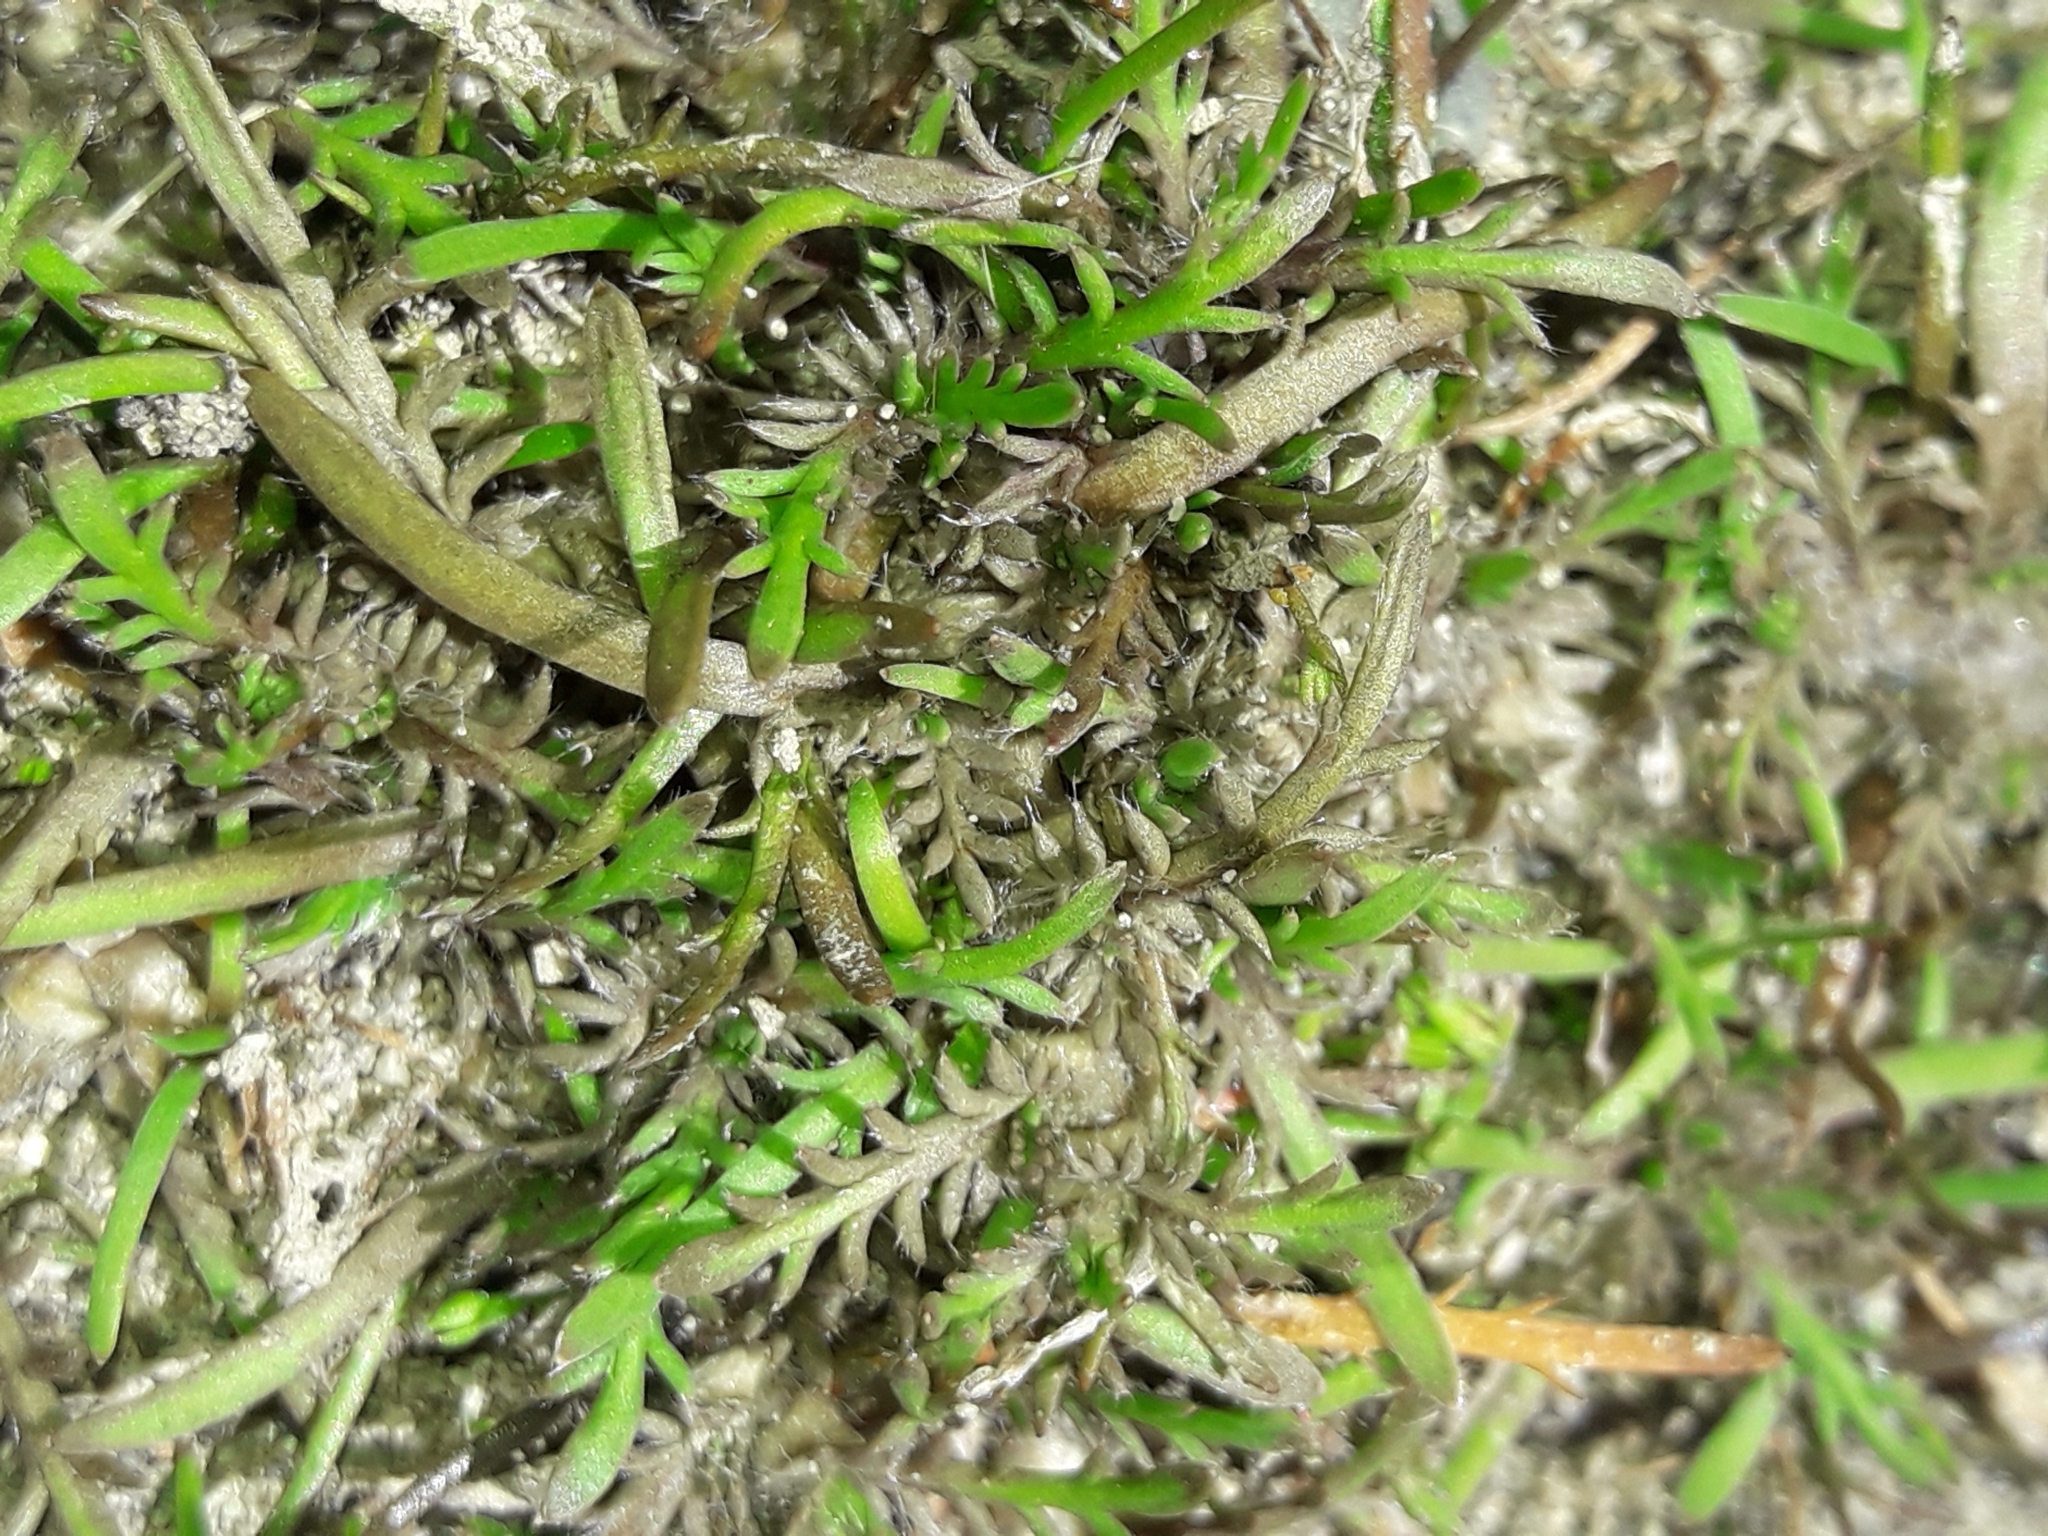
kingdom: Plantae
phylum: Tracheophyta
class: Magnoliopsida
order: Asterales
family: Asteraceae
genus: Leptinella
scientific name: Leptinella maniototo
